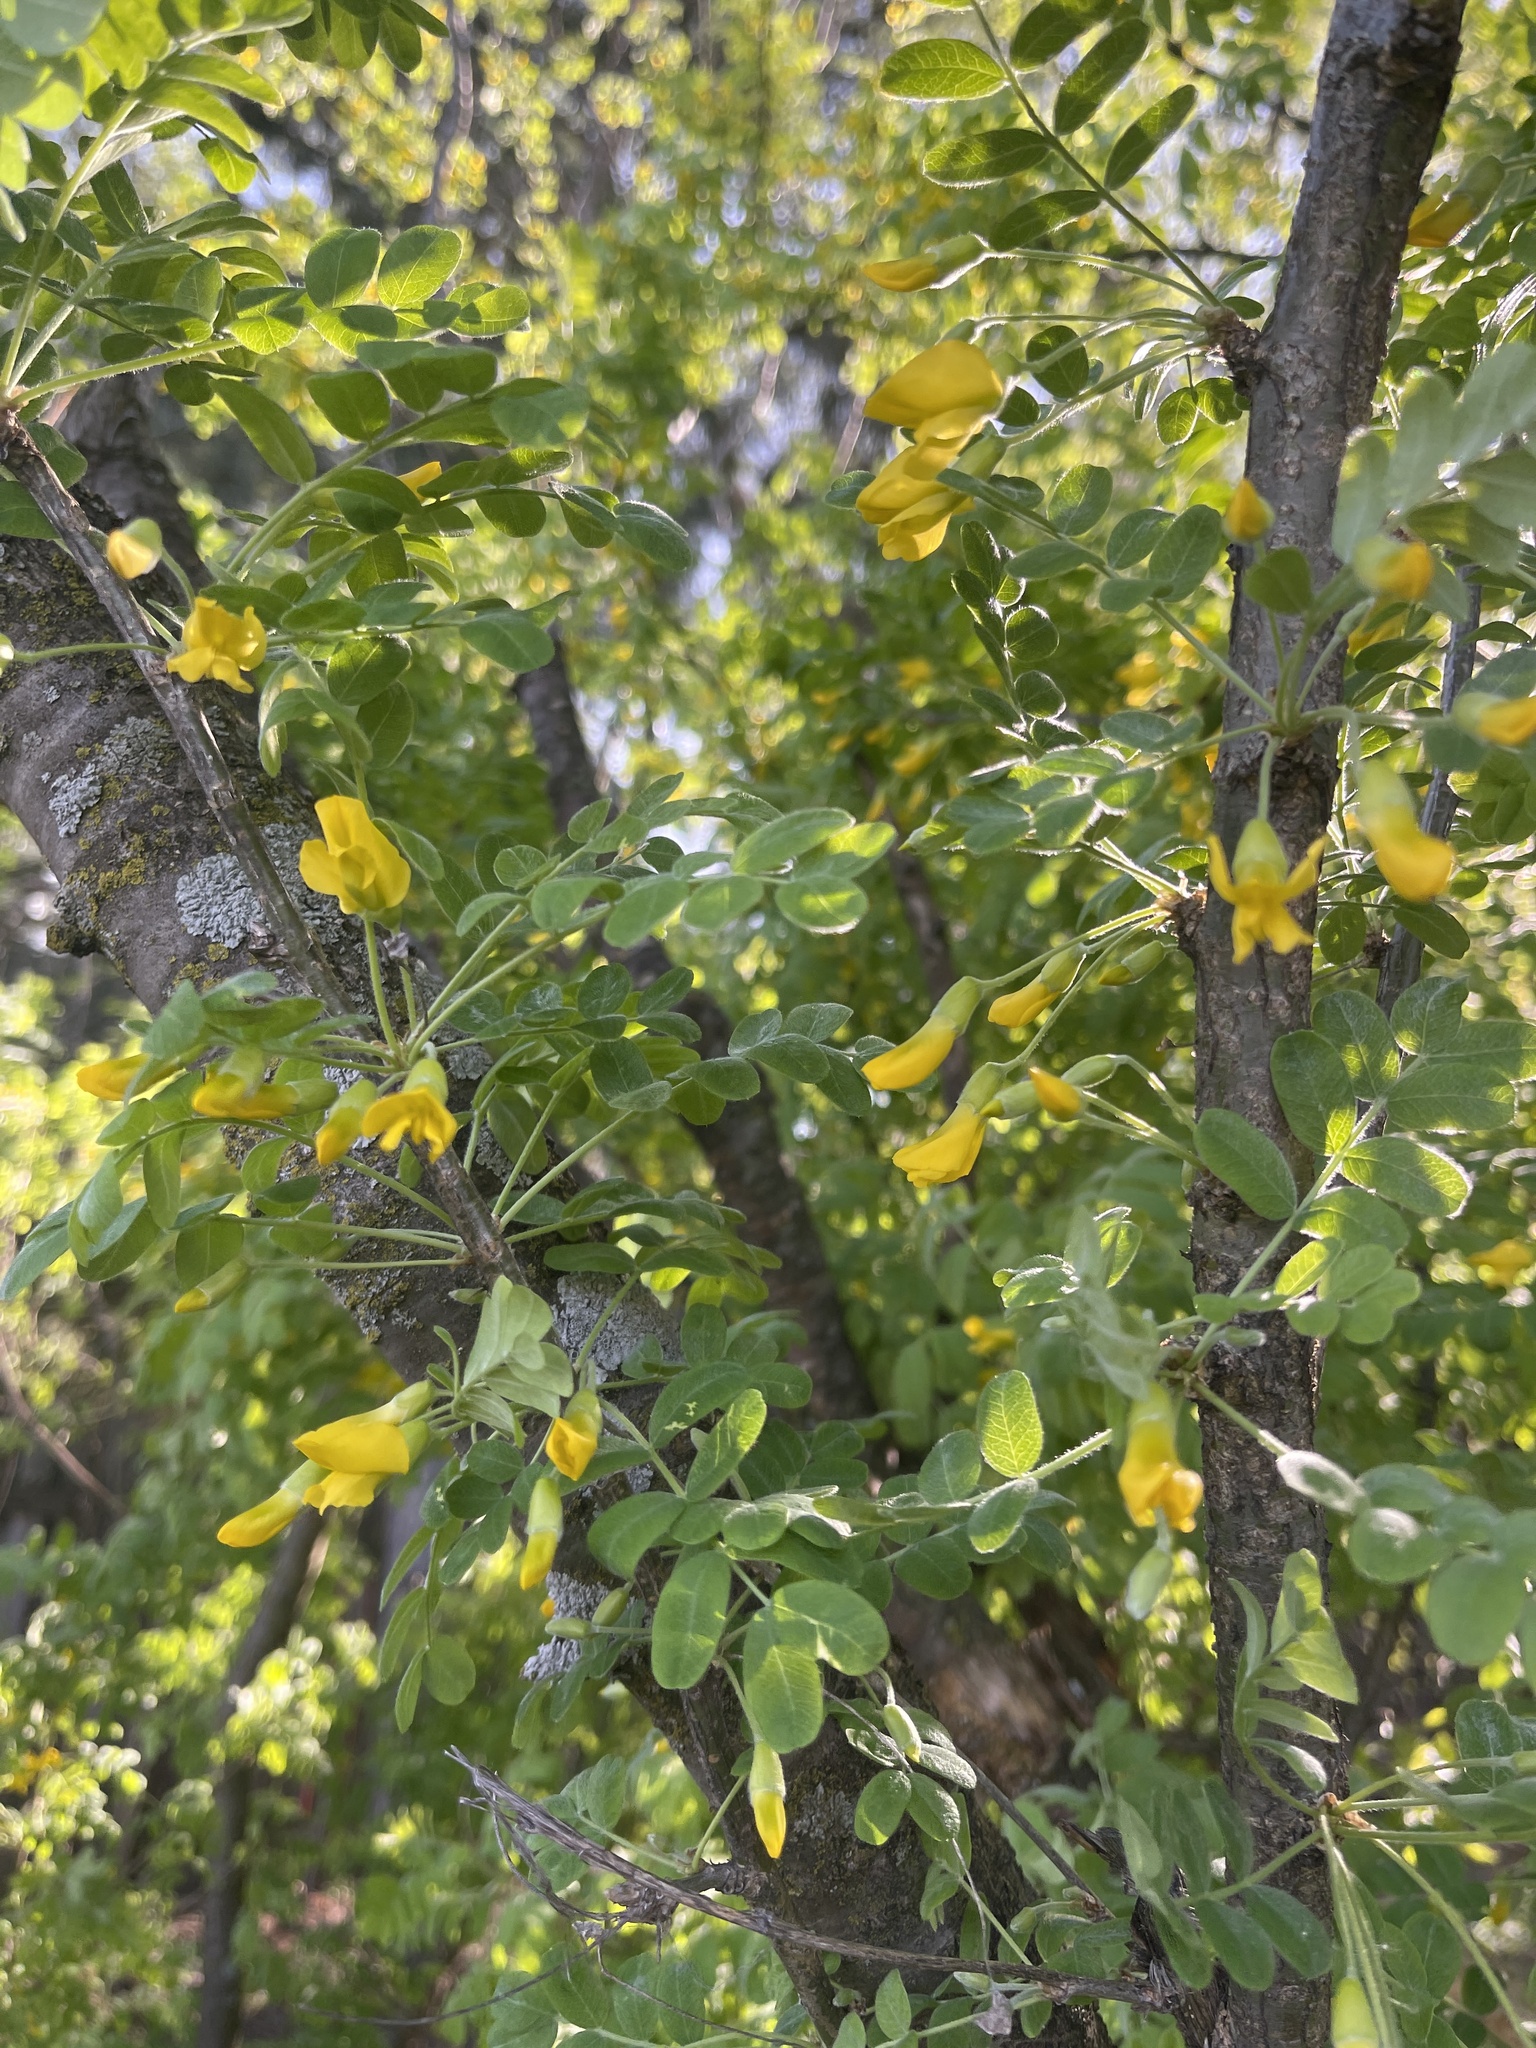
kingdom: Plantae
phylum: Tracheophyta
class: Magnoliopsida
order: Fabales
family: Fabaceae
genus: Caragana
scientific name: Caragana arborescens
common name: Siberian peashrub
